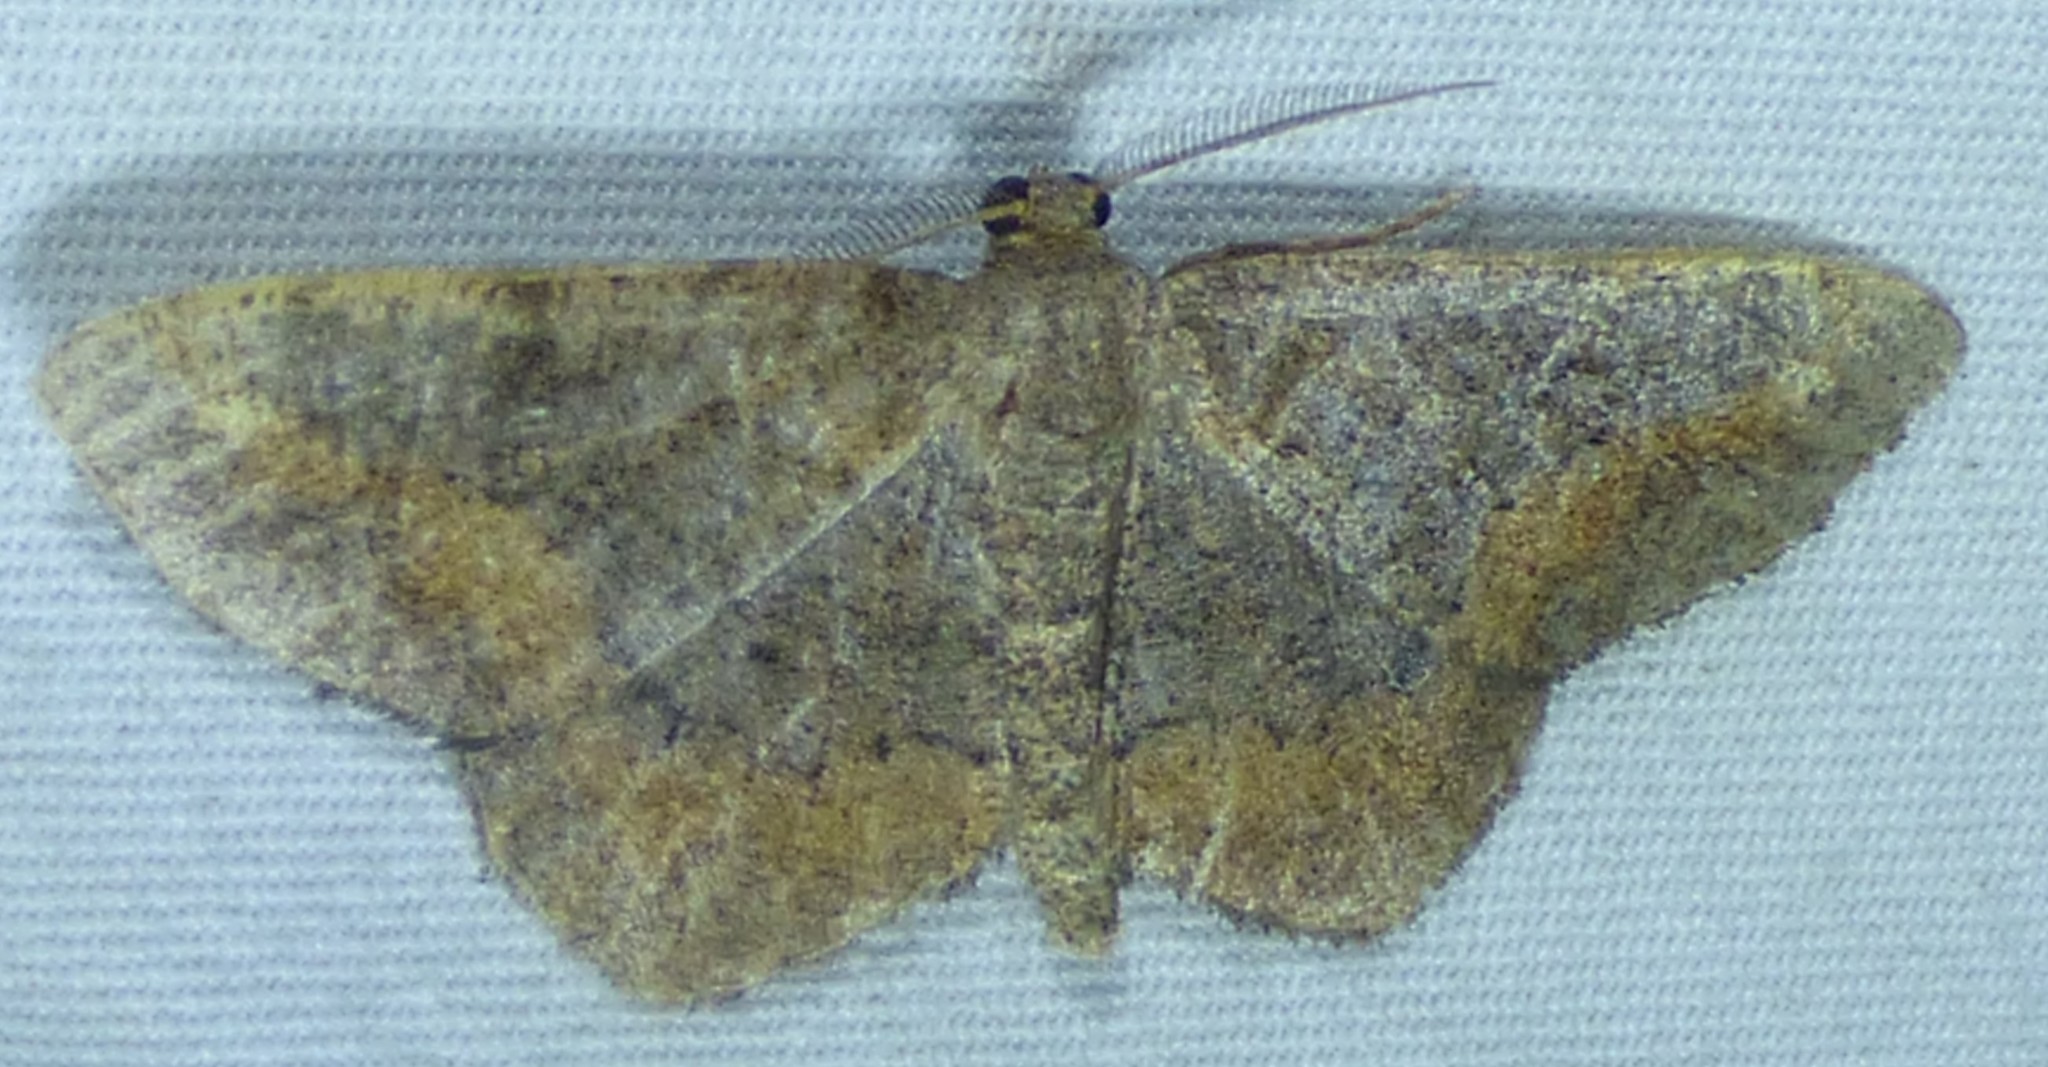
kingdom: Animalia
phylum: Arthropoda
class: Insecta
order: Lepidoptera
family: Geometridae
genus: Hypagyrtis
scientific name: Hypagyrtis unipunctata
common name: One-spotted variant
